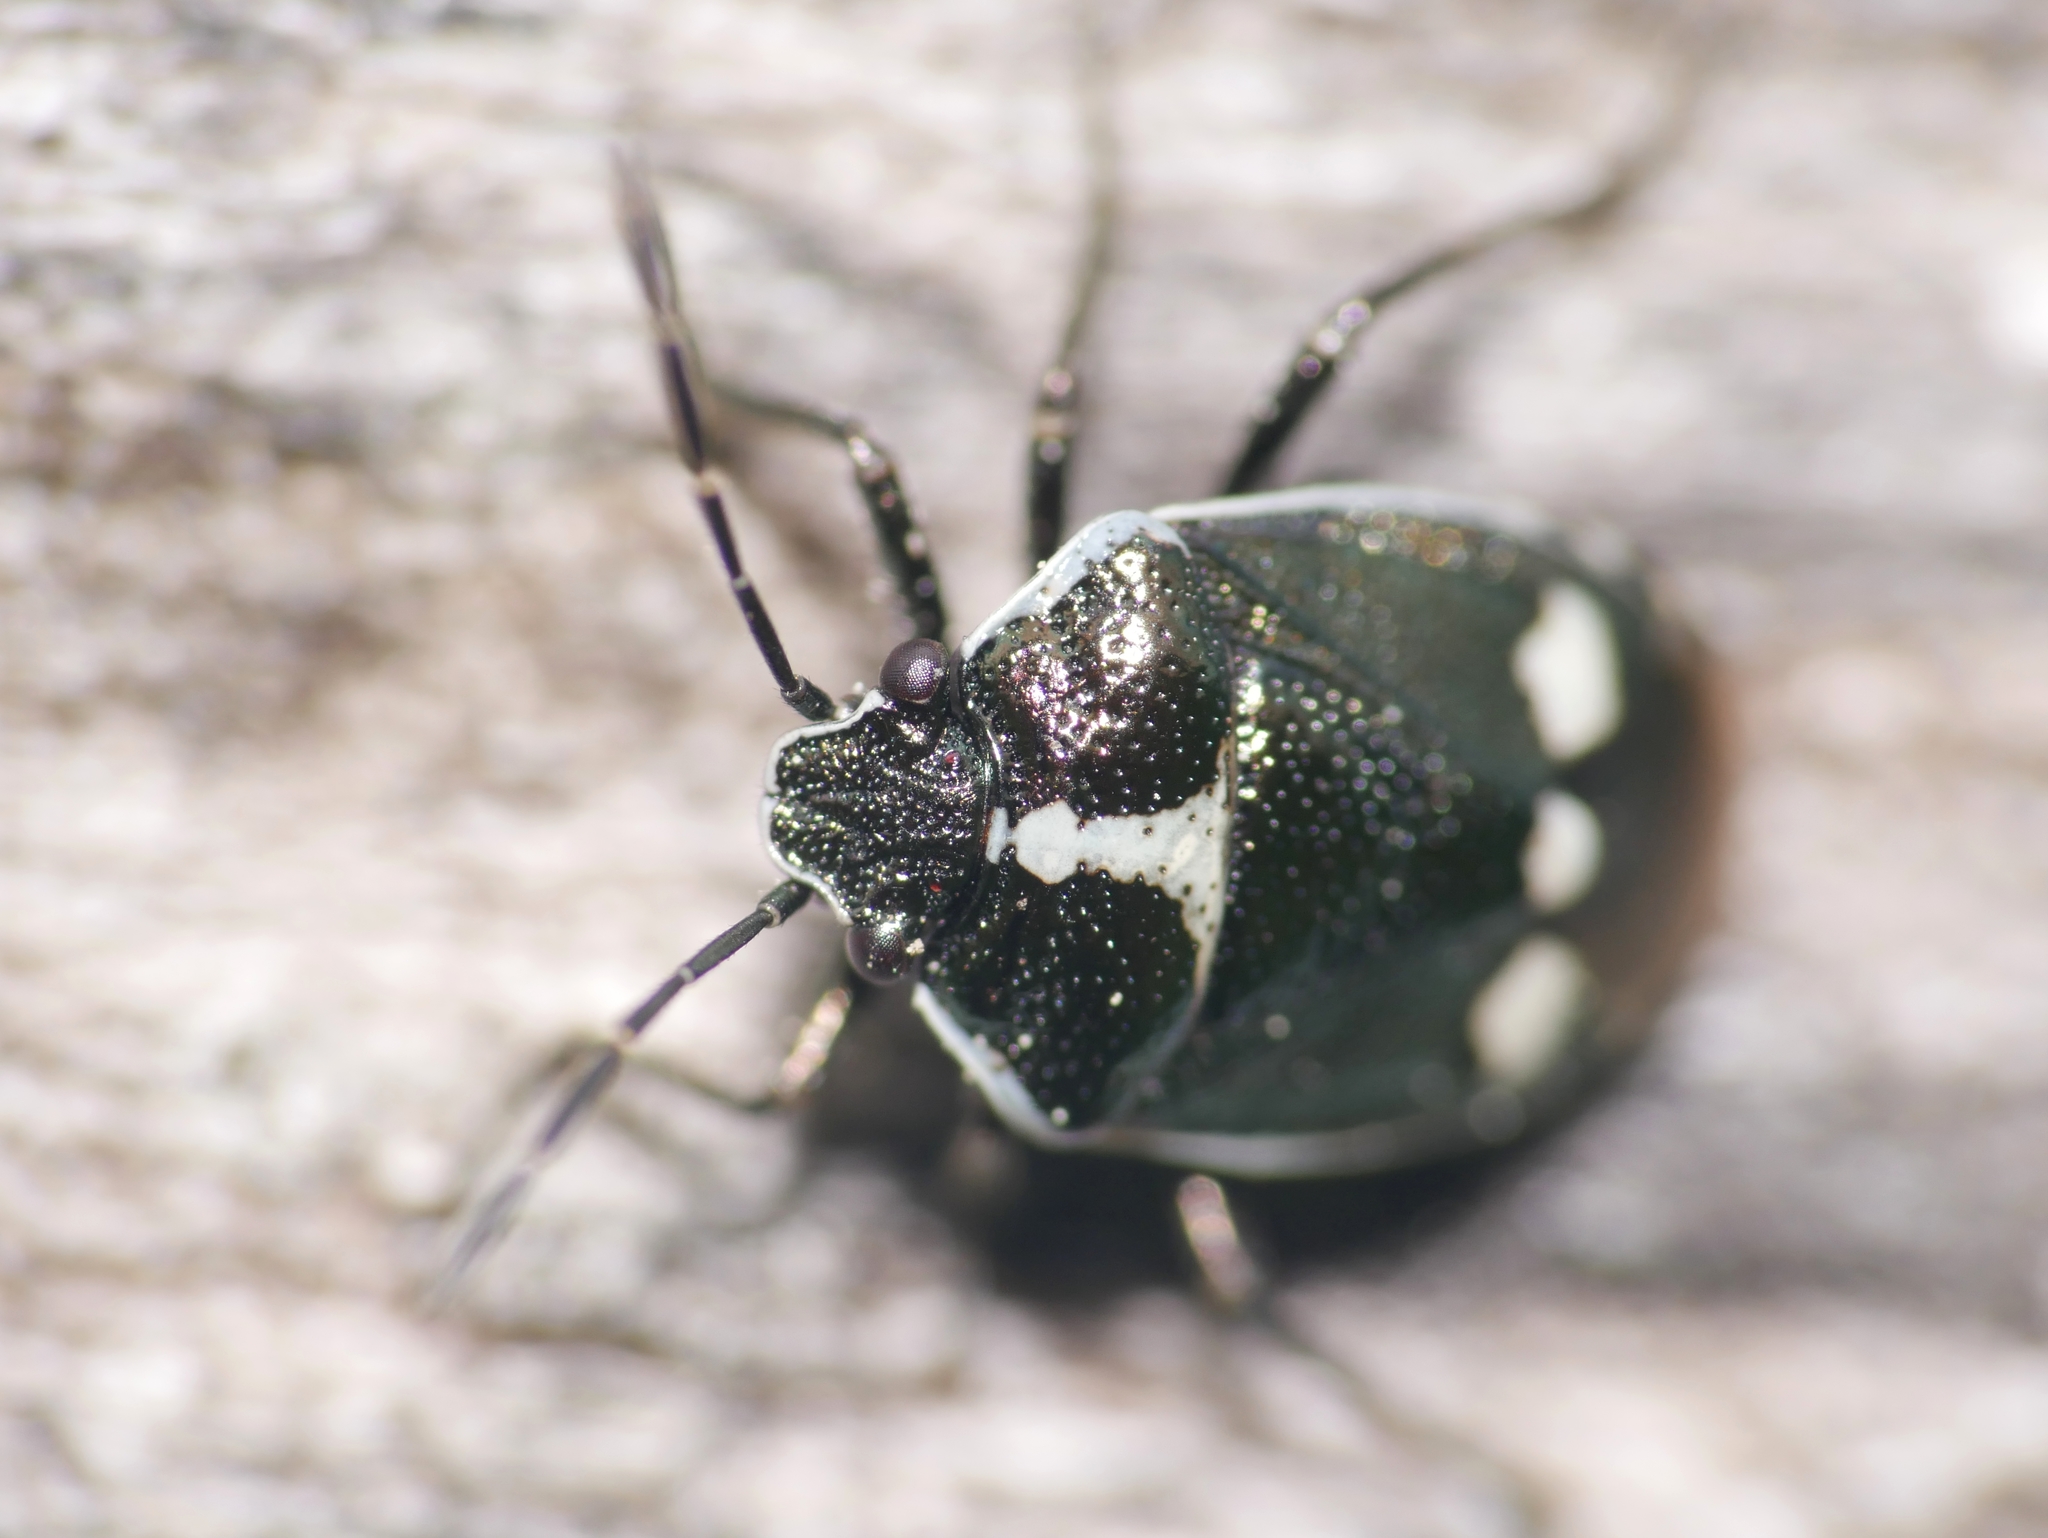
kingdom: Animalia
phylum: Arthropoda
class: Insecta
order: Hemiptera
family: Pentatomidae
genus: Eurydema
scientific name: Eurydema oleracea
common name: Cabbage bug
